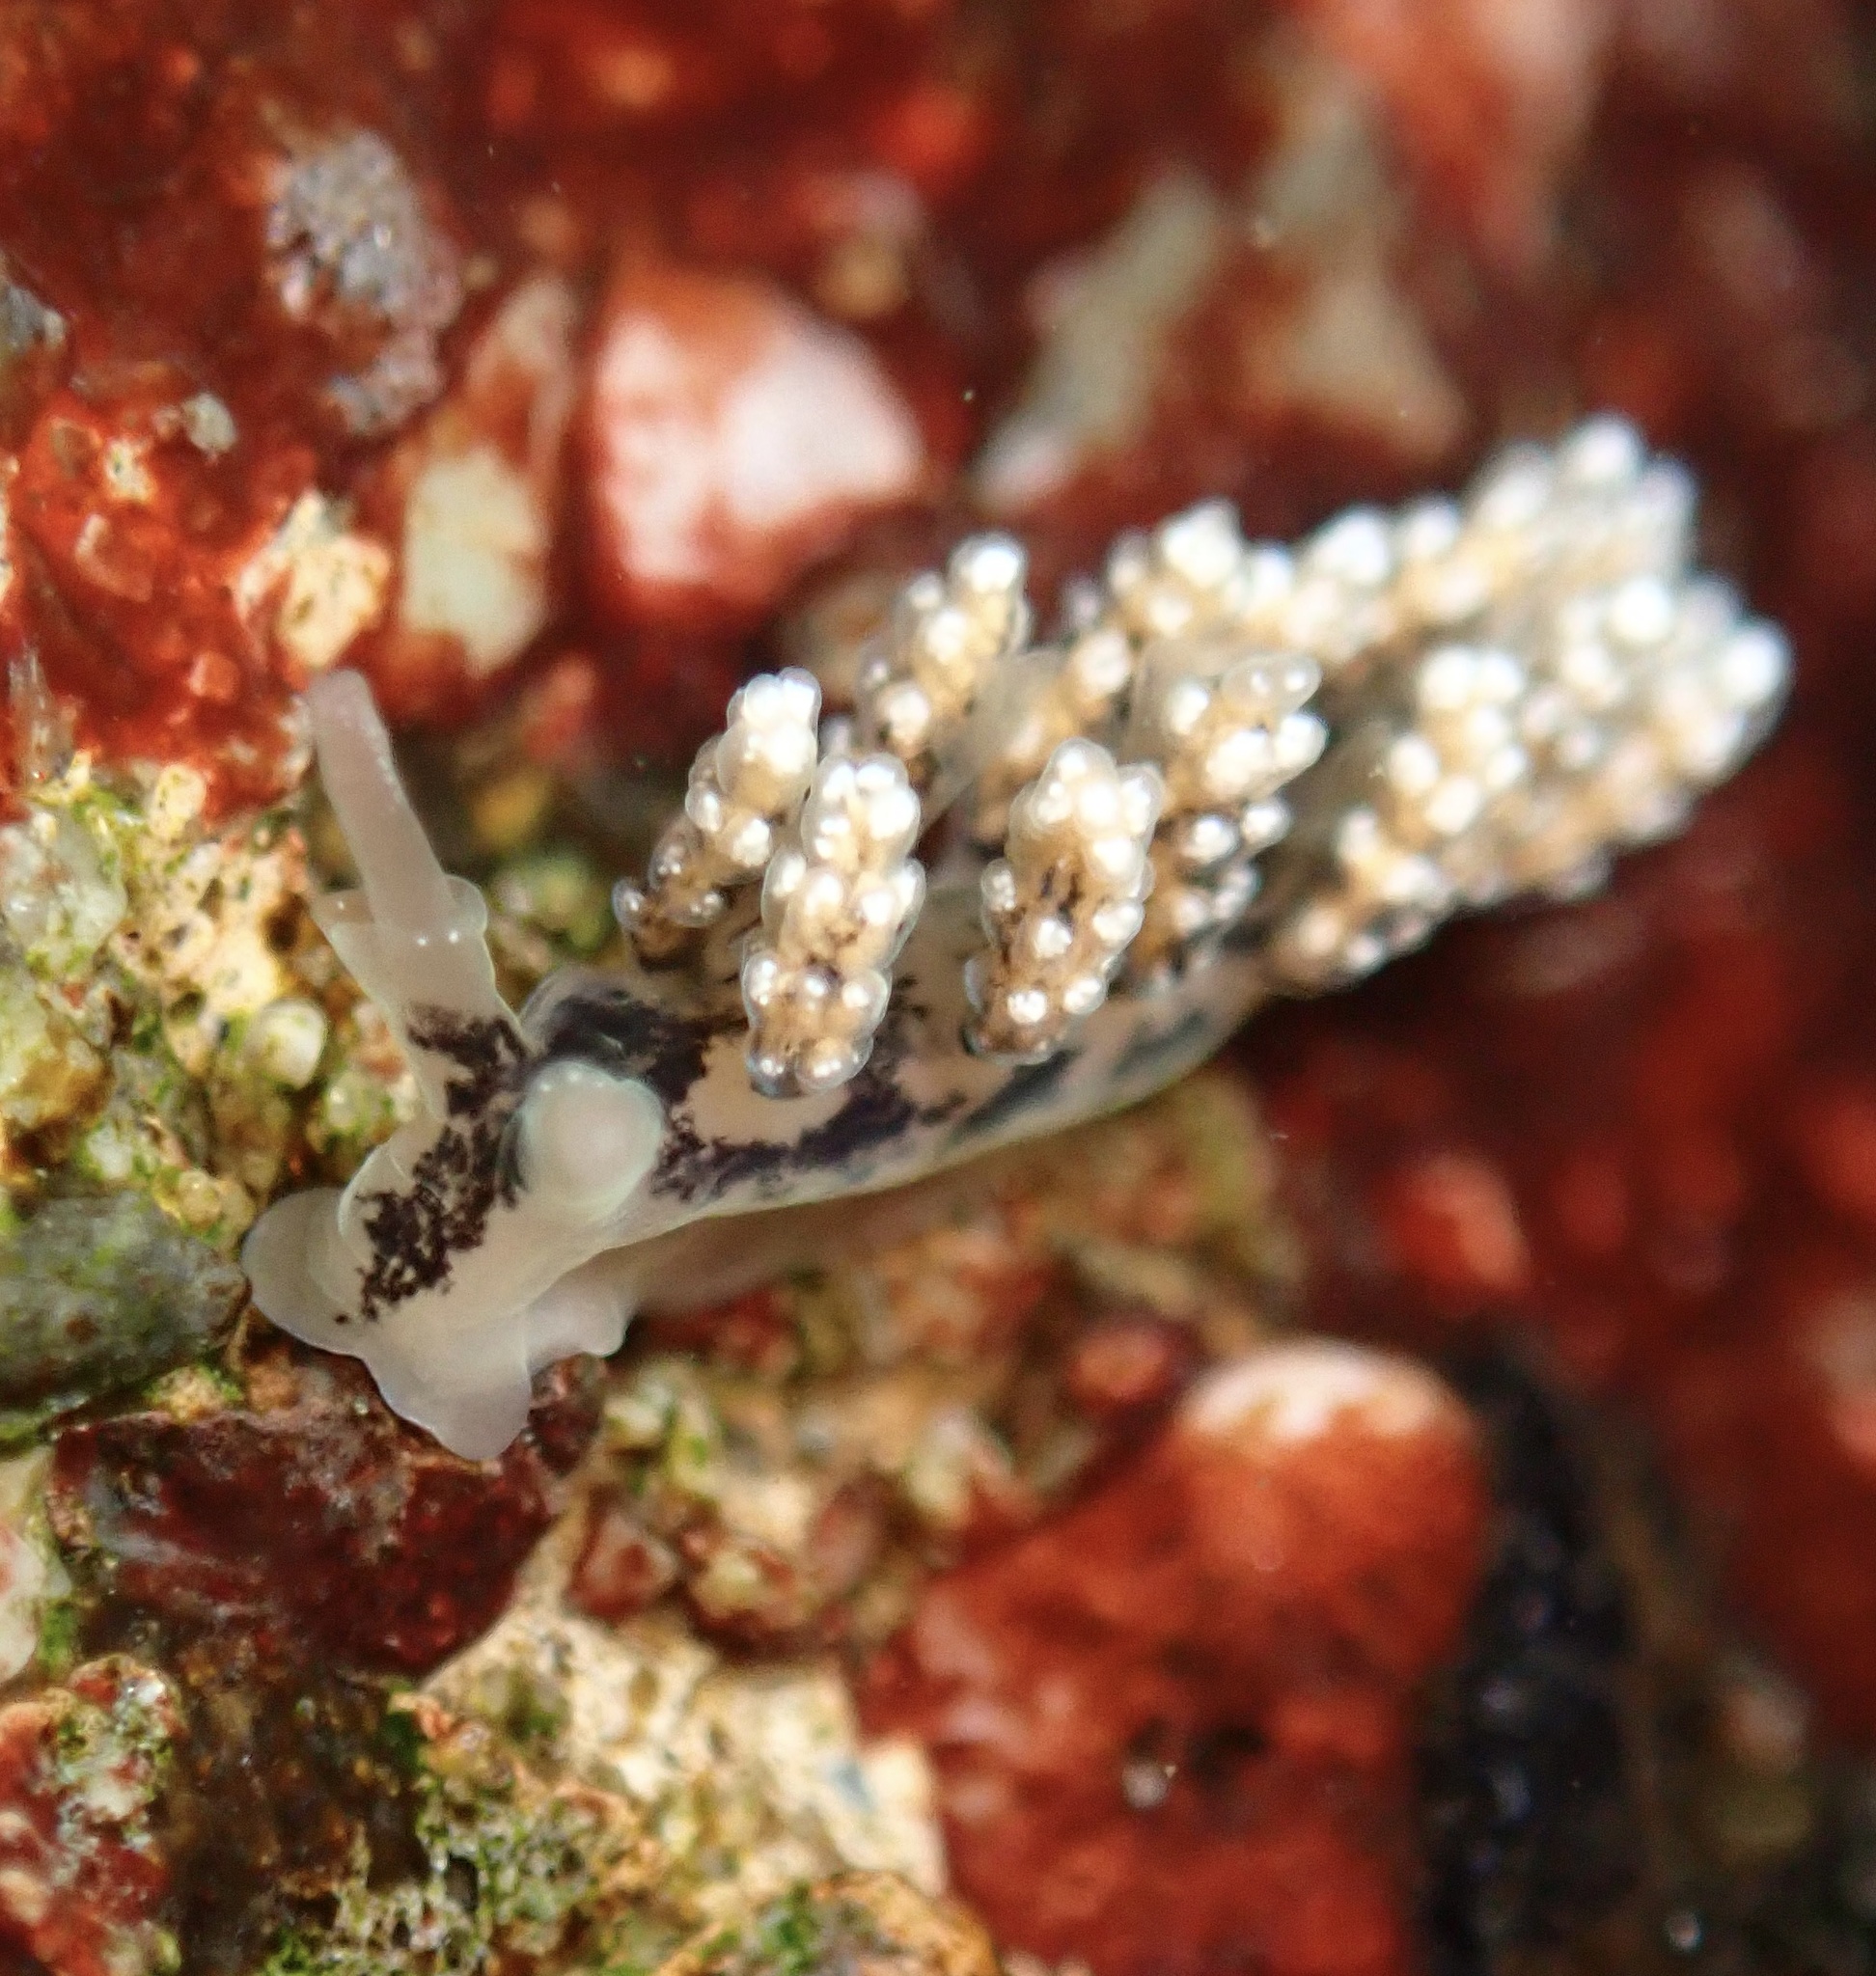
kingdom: Animalia
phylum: Mollusca
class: Gastropoda
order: Nudibranchia
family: Dotidae
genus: Doto
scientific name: Doto kya
